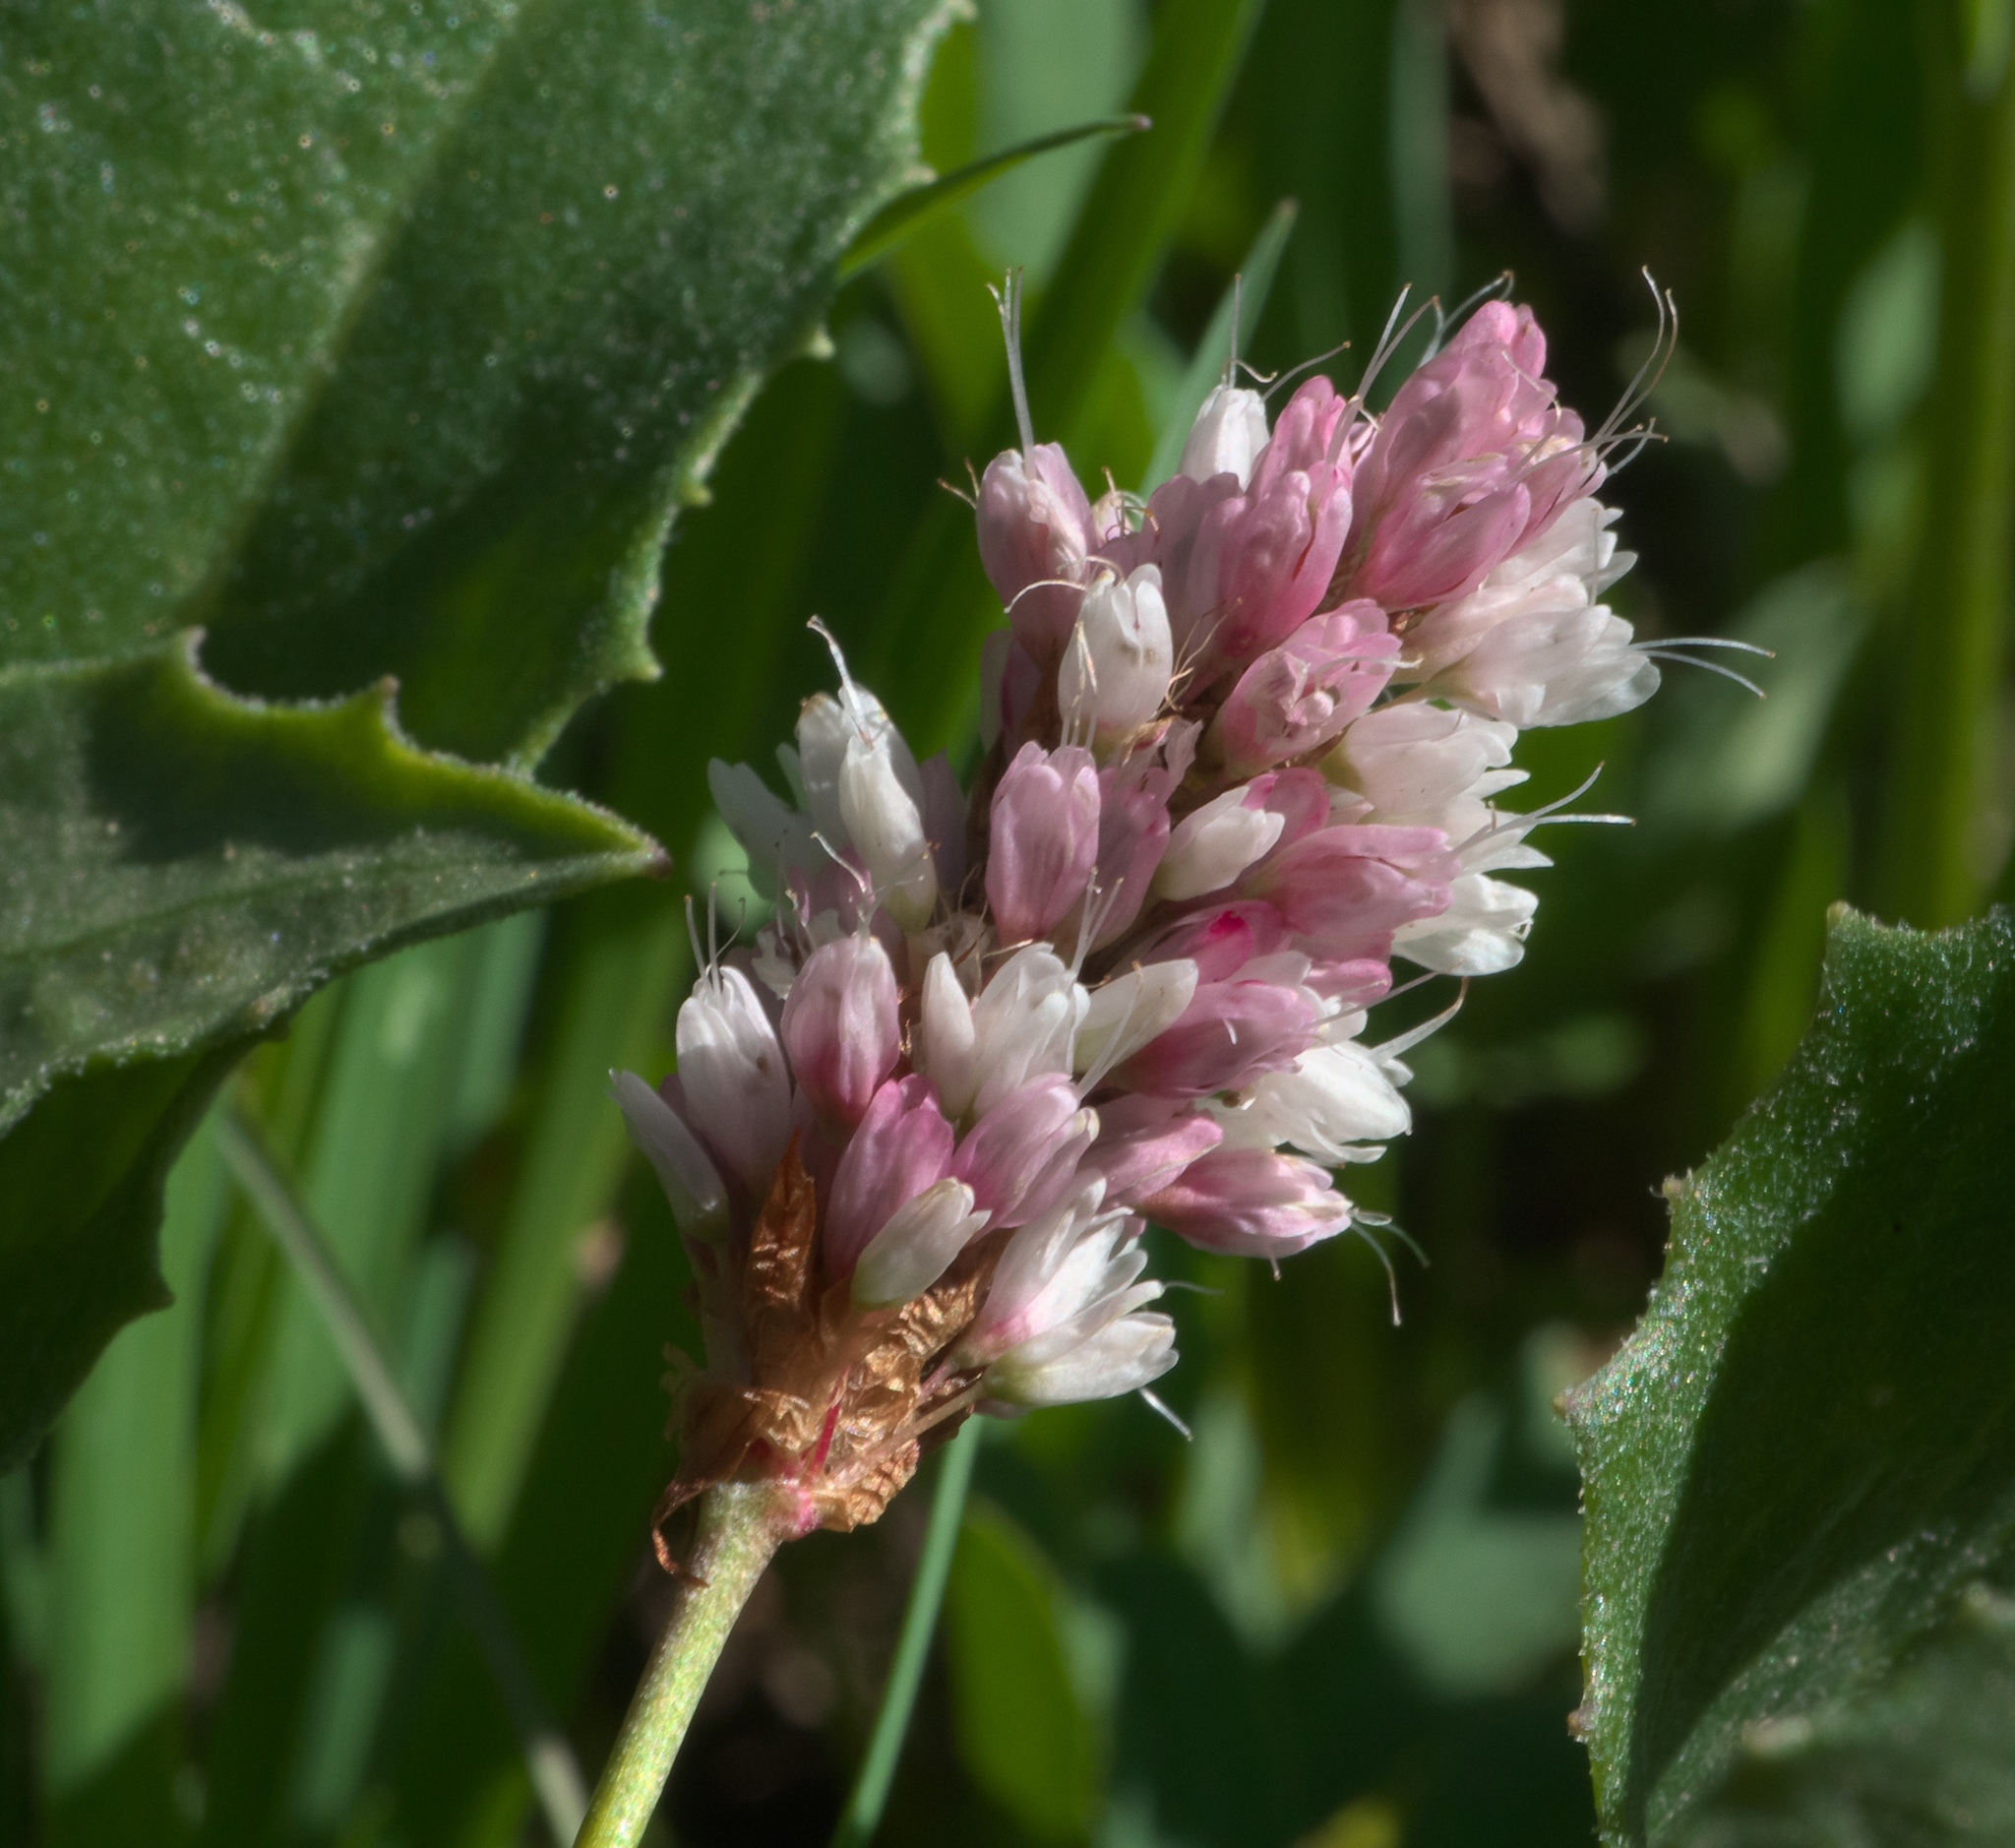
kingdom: Plantae
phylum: Tracheophyta
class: Magnoliopsida
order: Caryophyllales
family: Polygonaceae
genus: Bistorta
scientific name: Bistorta bistortoides
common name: American bistort
